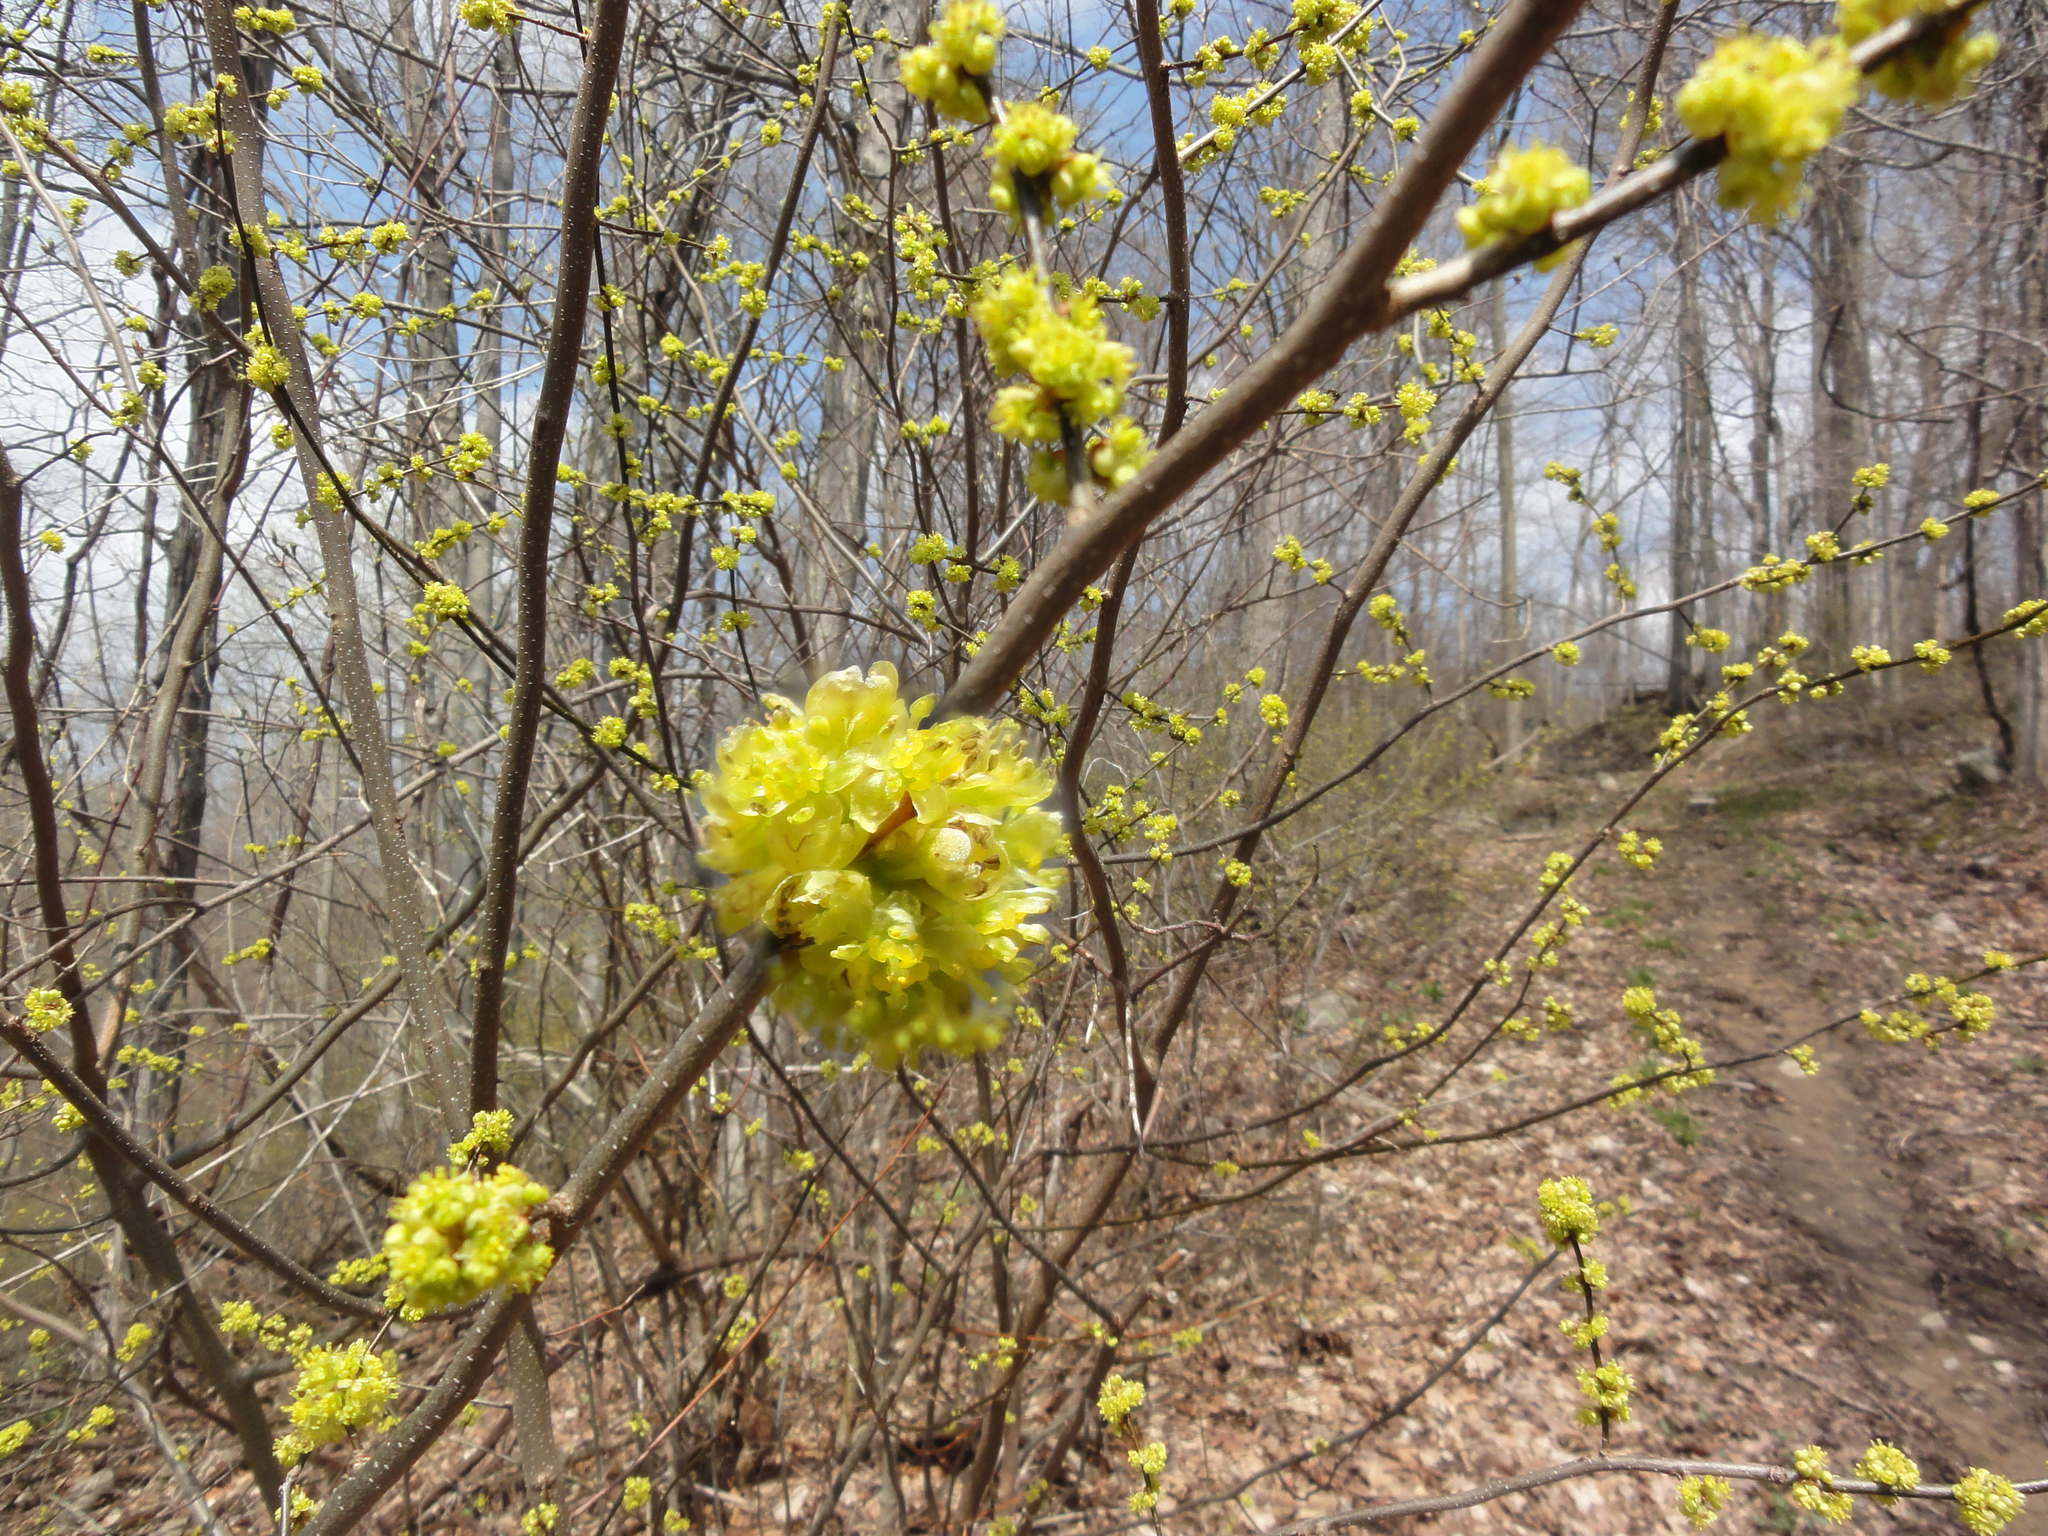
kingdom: Plantae
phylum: Tracheophyta
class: Magnoliopsida
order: Laurales
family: Lauraceae
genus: Lindera
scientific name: Lindera benzoin
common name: Spicebush
